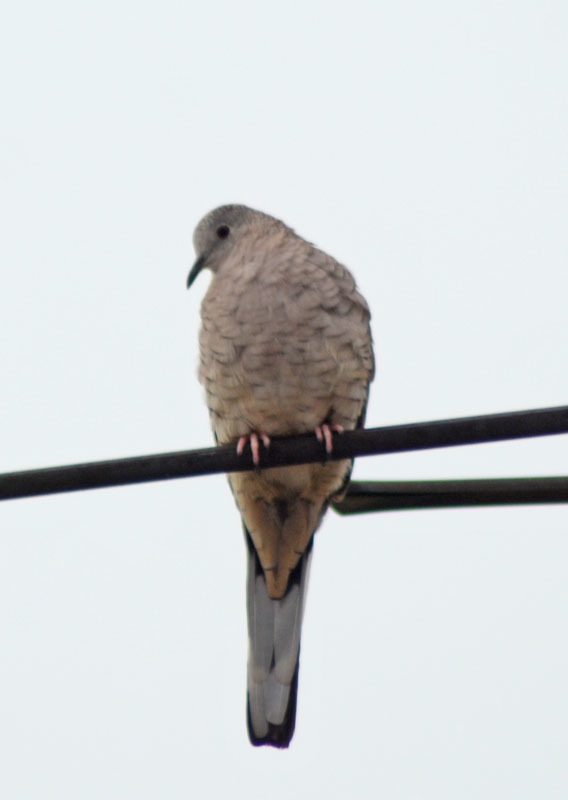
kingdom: Animalia
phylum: Chordata
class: Aves
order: Columbiformes
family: Columbidae
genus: Columbina
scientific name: Columbina inca
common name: Inca dove
